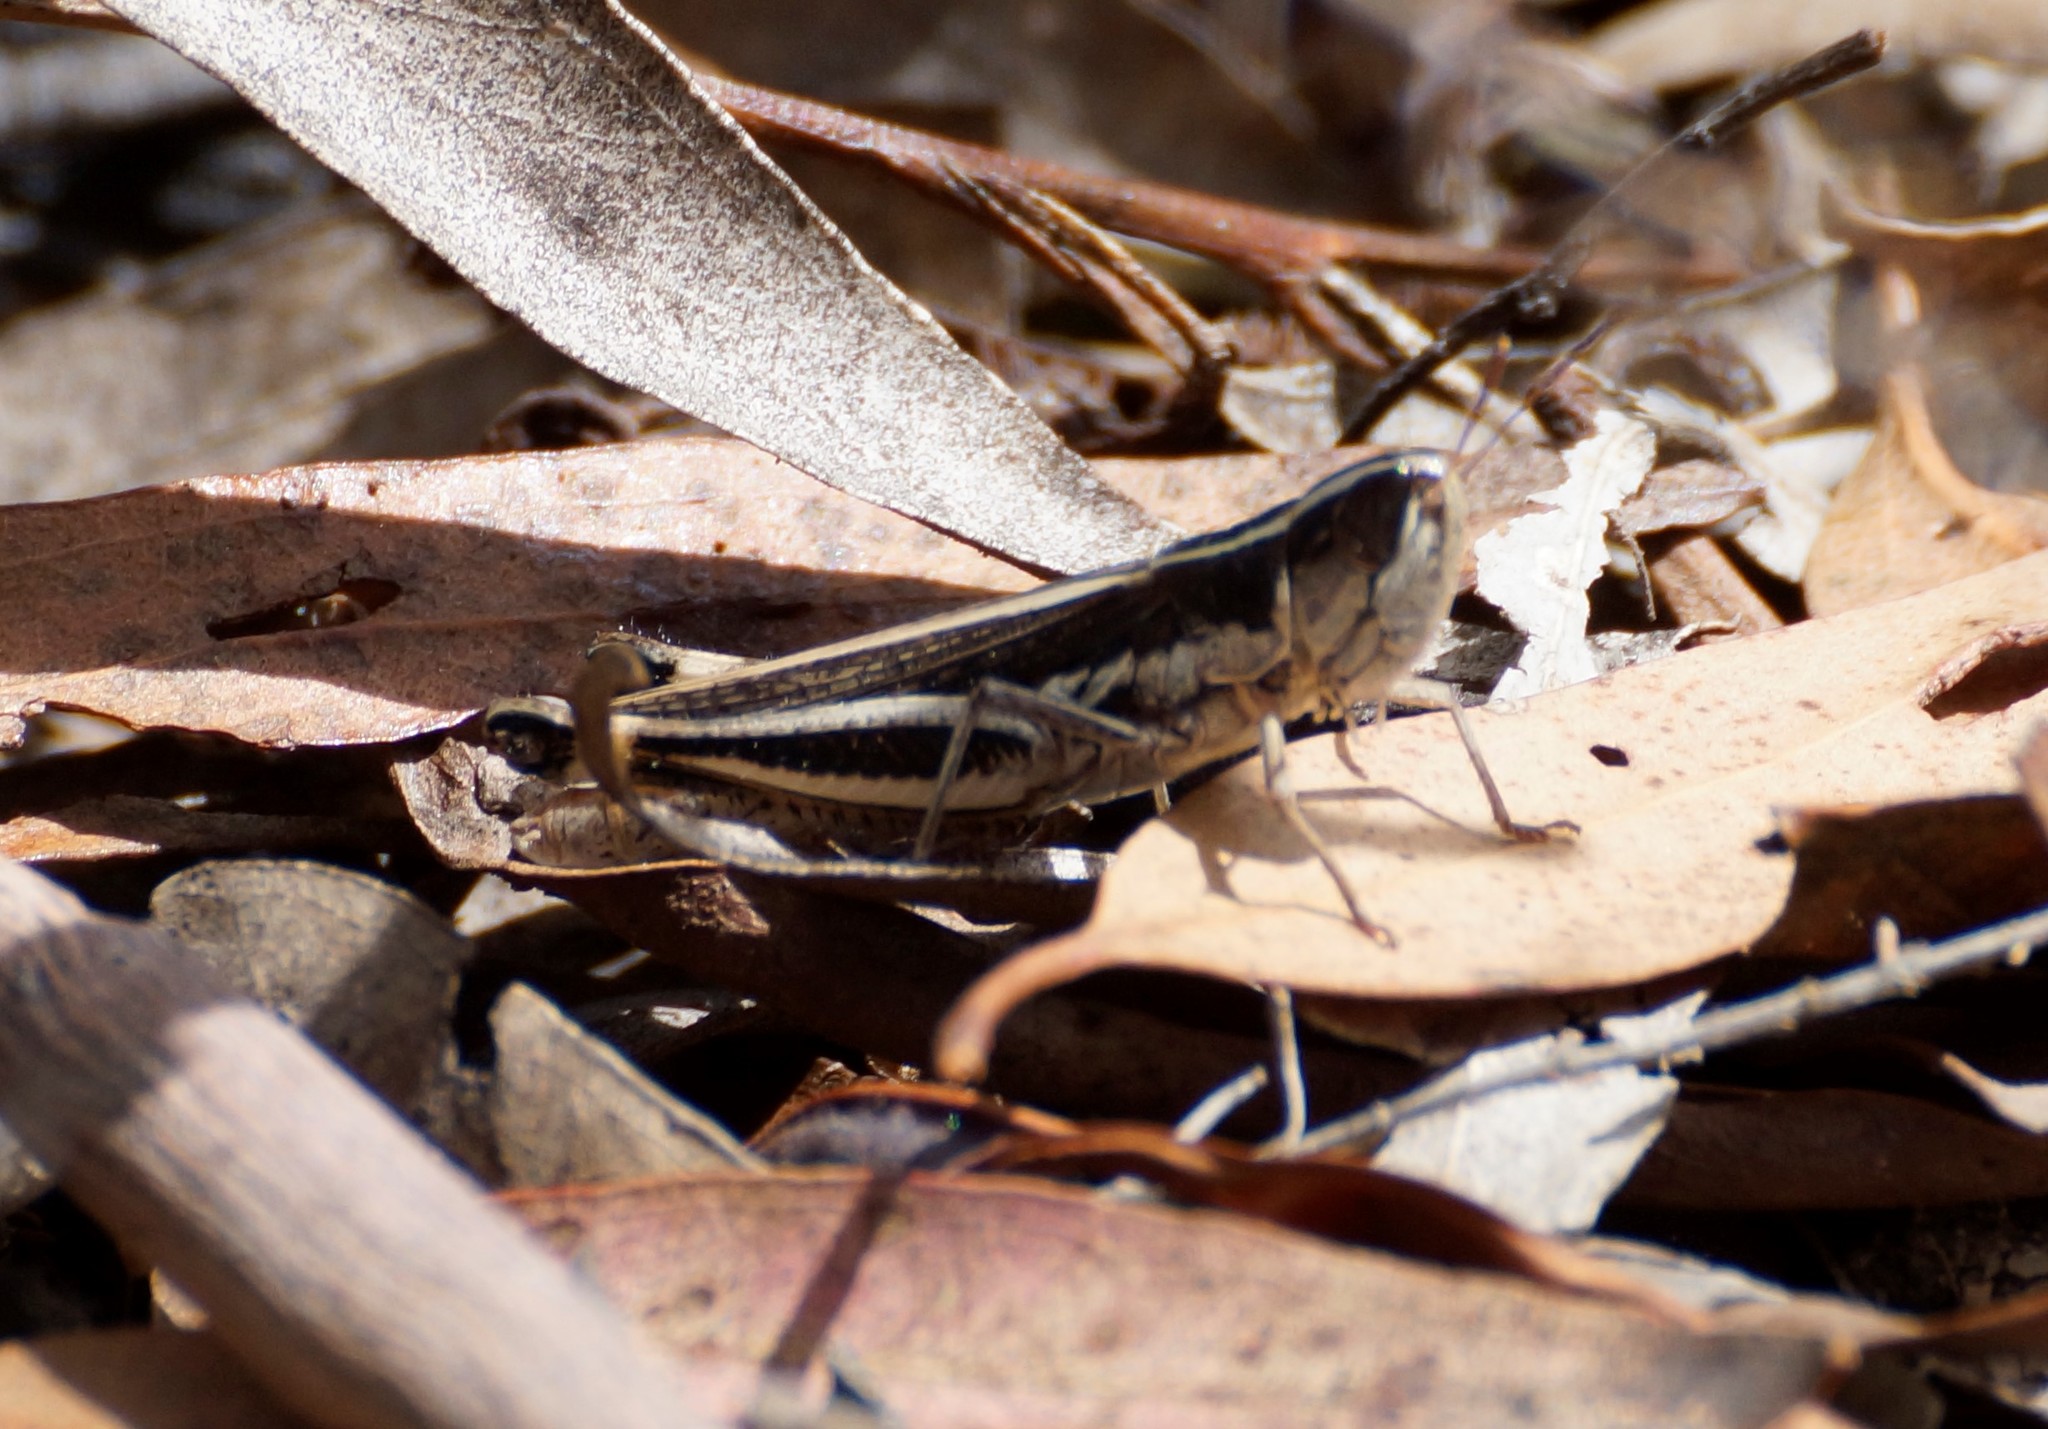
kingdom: Animalia
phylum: Arthropoda
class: Insecta
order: Orthoptera
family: Acrididae
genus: Macrotona
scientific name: Macrotona securiformis
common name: Inland macrotona
